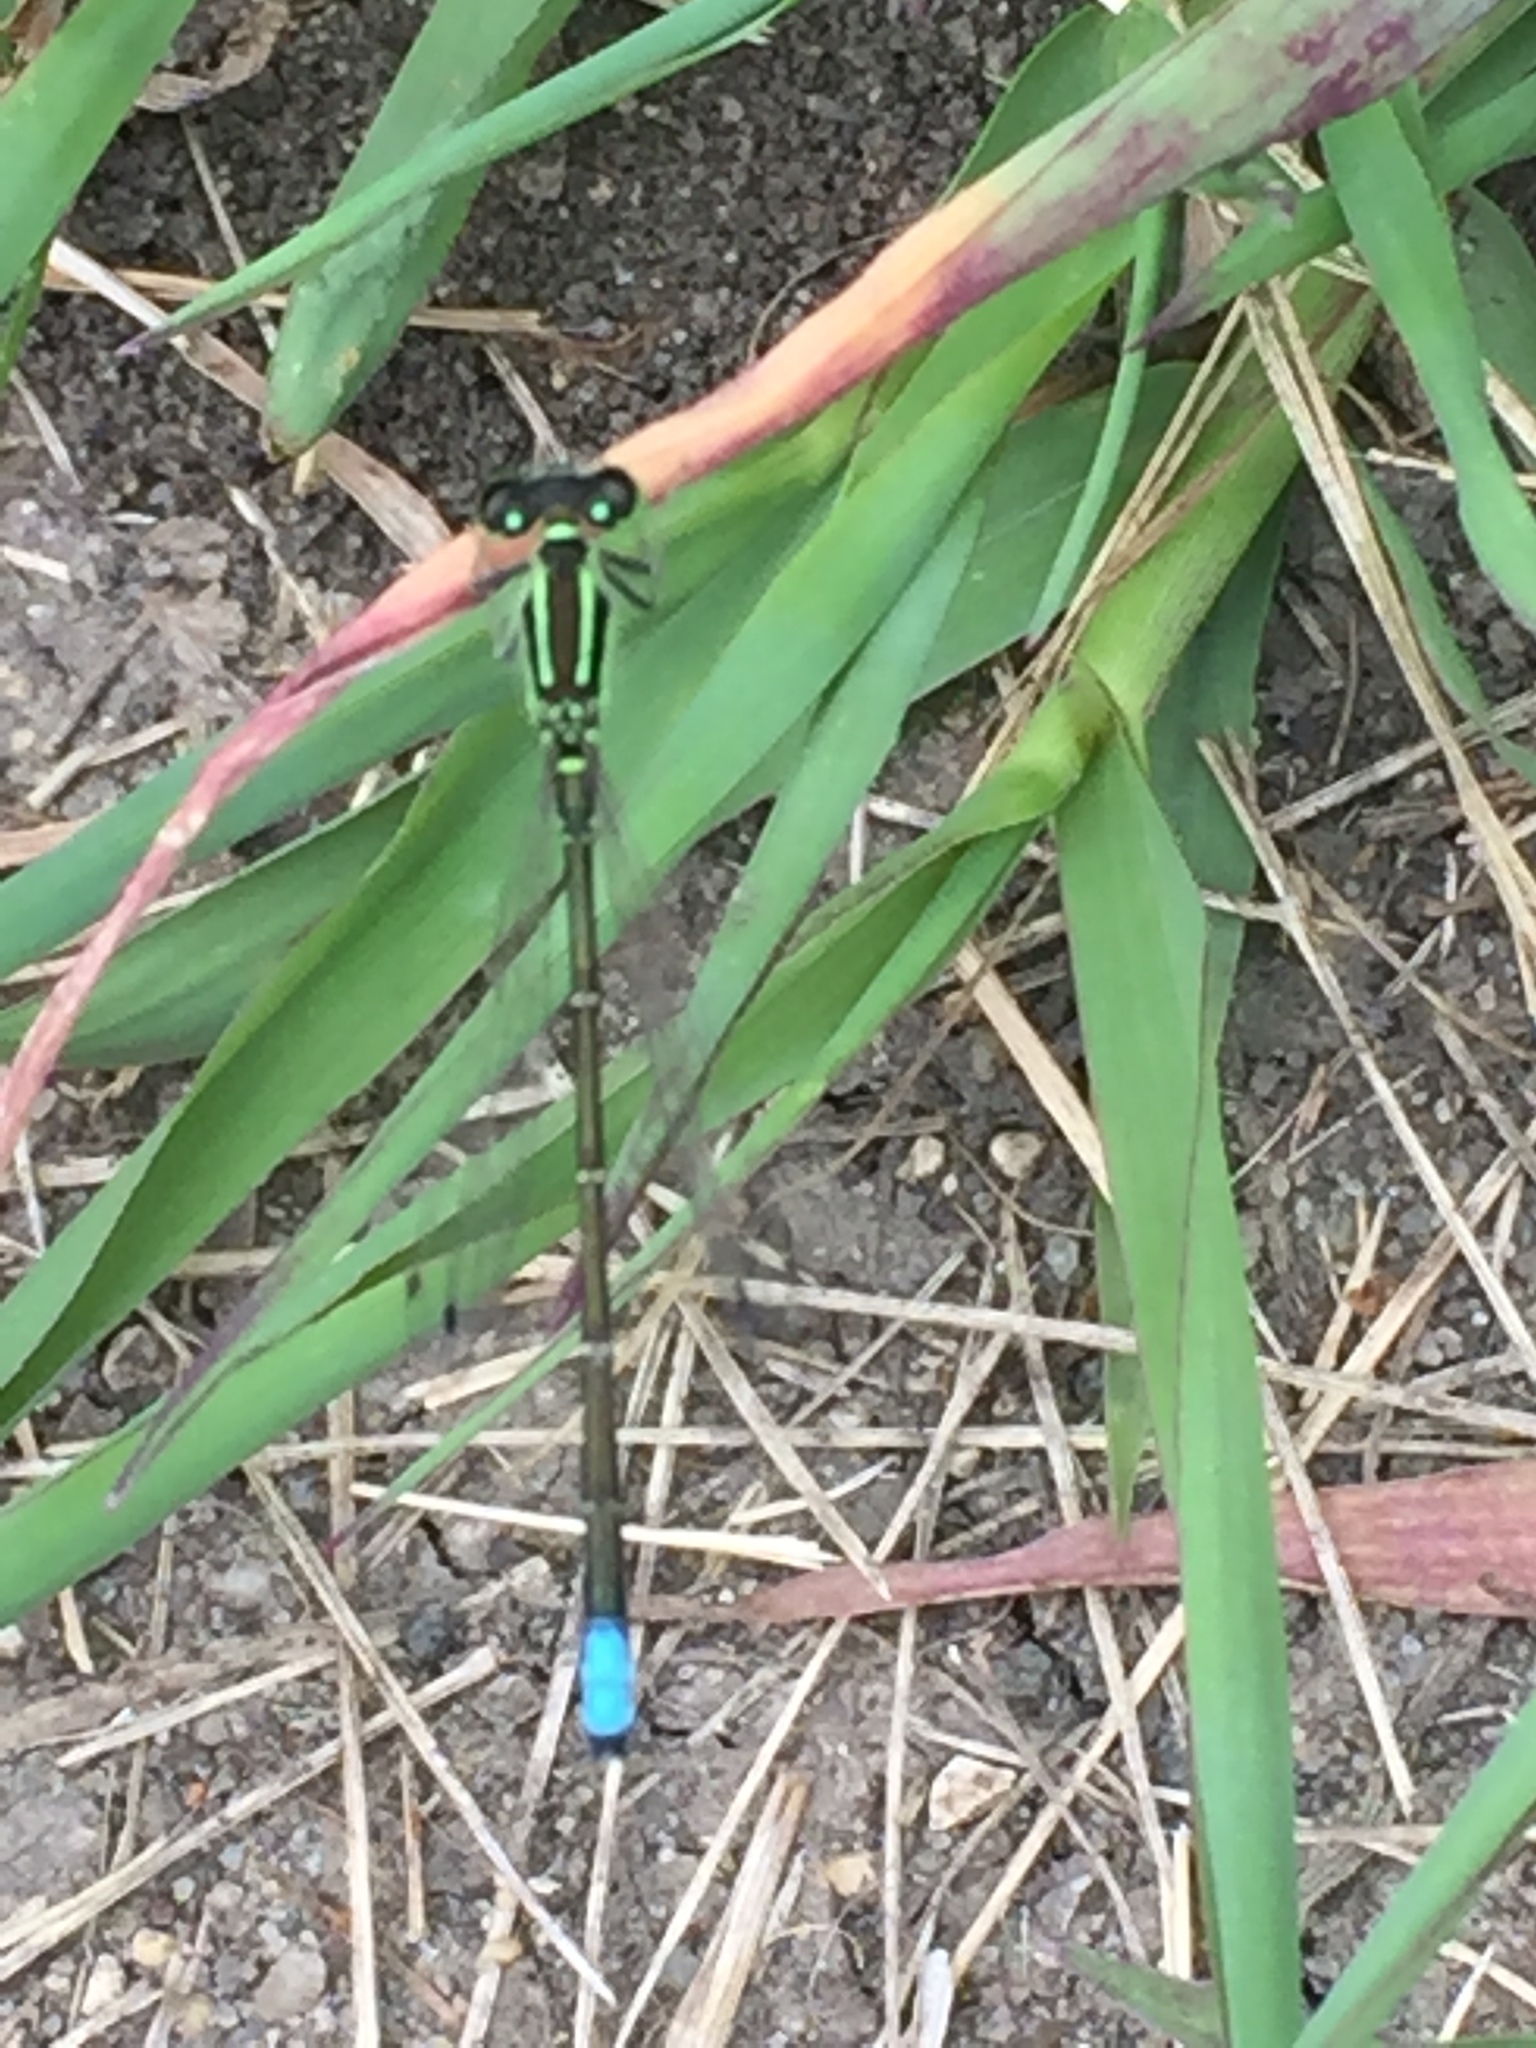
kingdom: Animalia
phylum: Arthropoda
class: Insecta
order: Odonata
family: Coenagrionidae
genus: Ischnura
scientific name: Ischnura verticalis
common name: Eastern forktail
